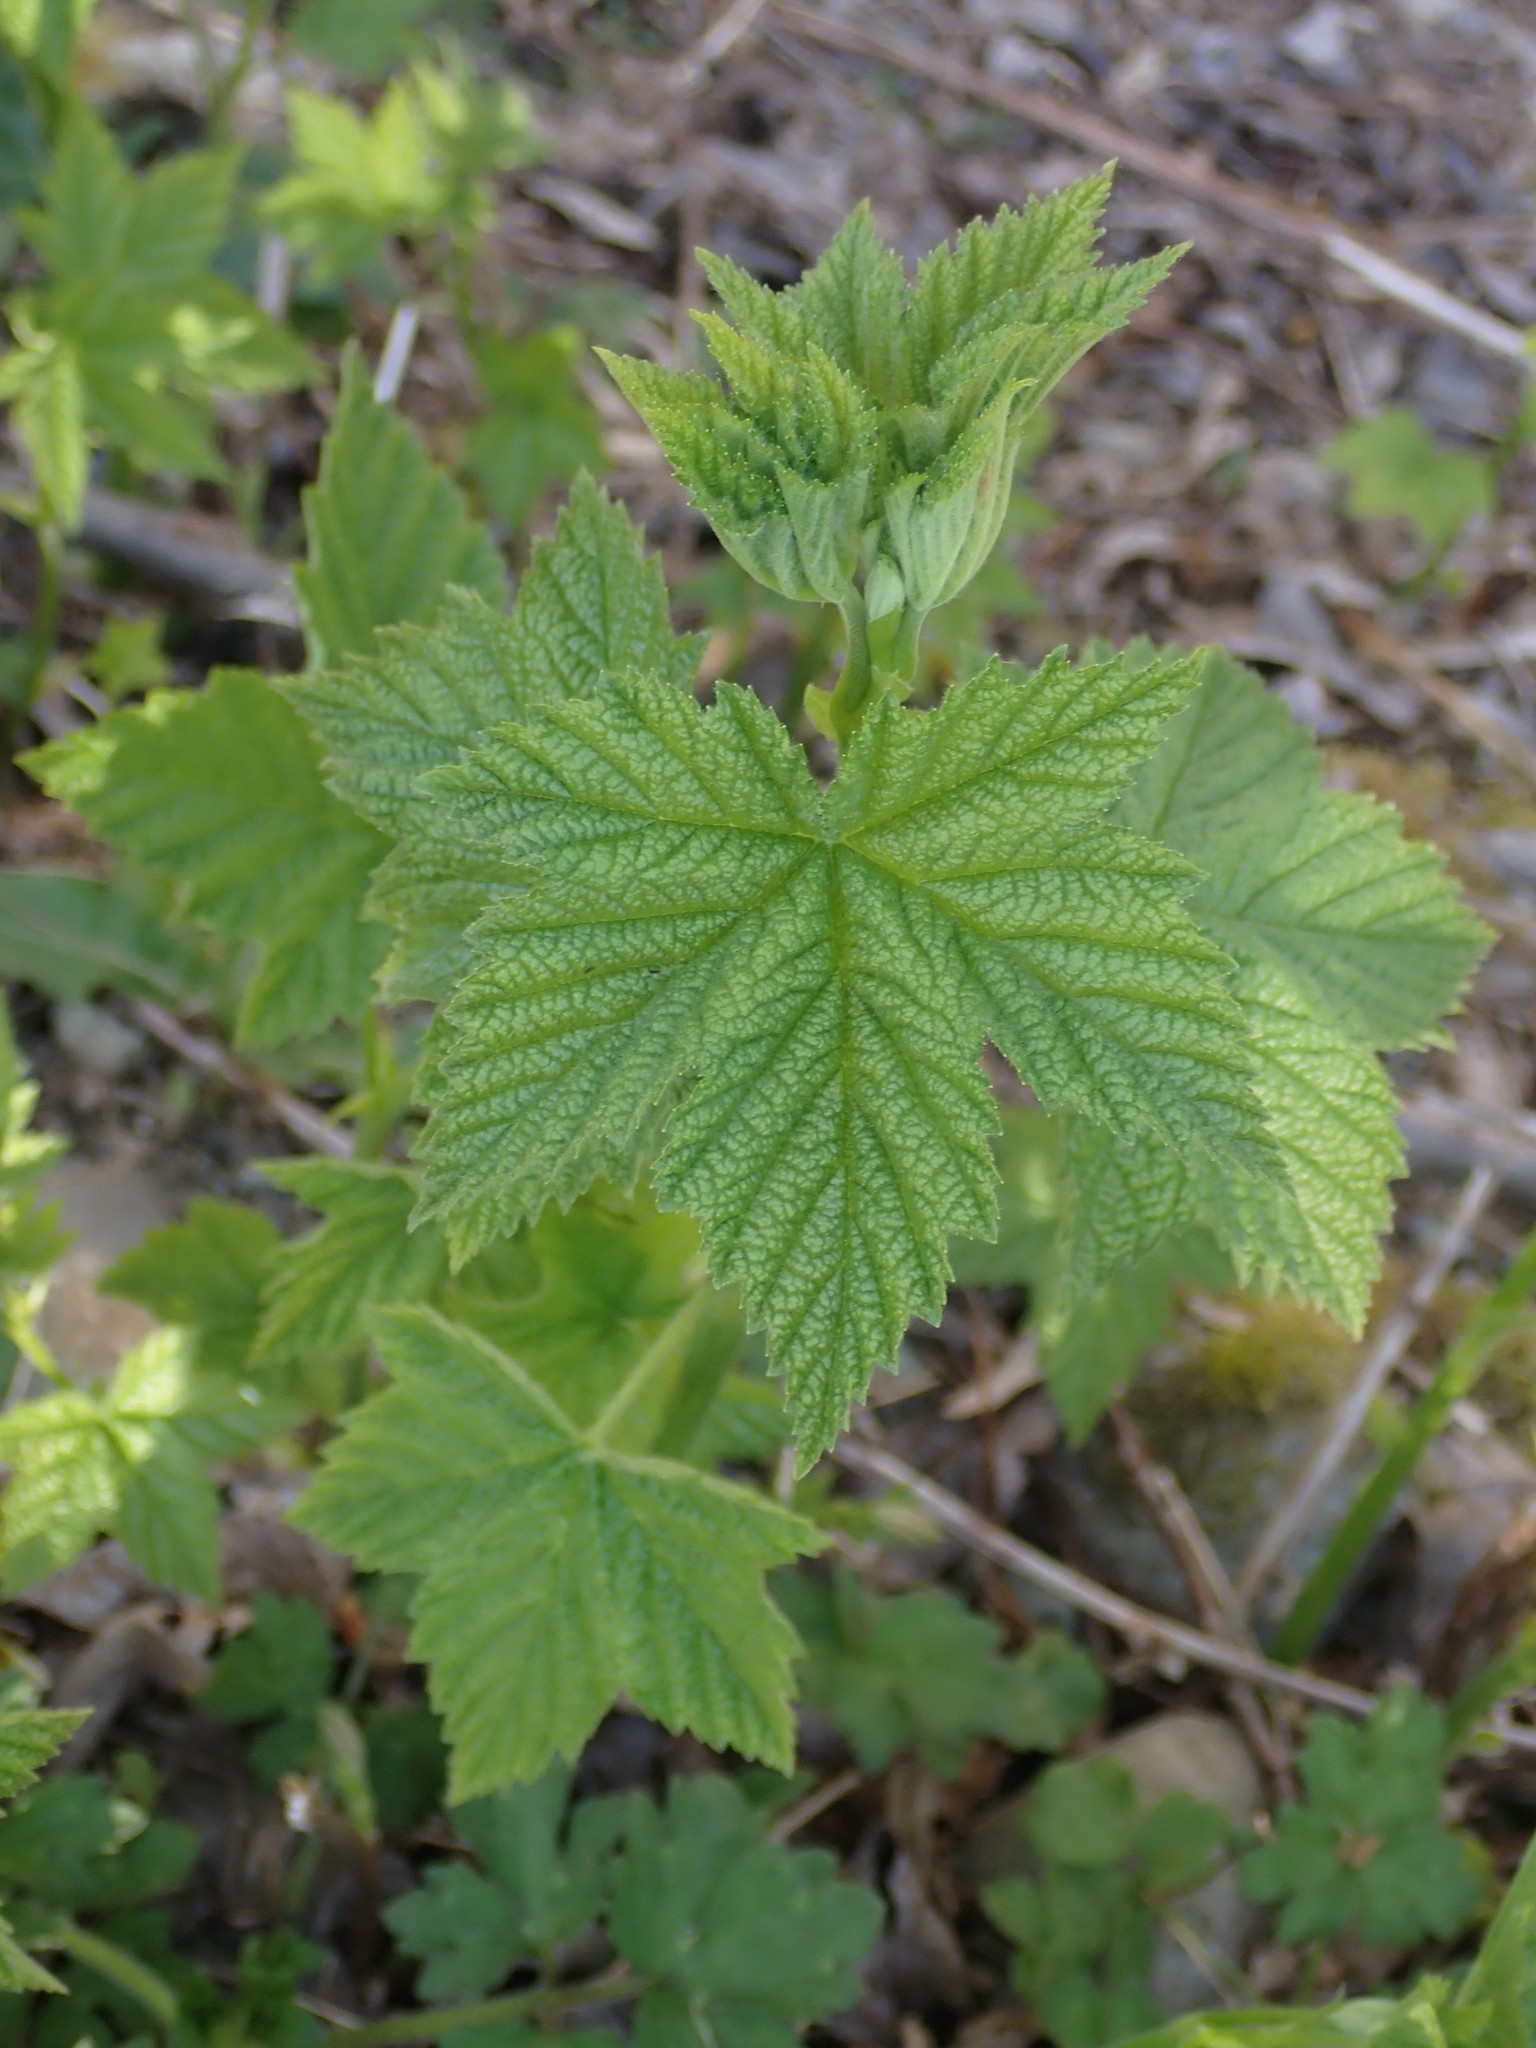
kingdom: Plantae
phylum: Tracheophyta
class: Magnoliopsida
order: Rosales
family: Rosaceae
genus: Rubus
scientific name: Rubus parviflorus
